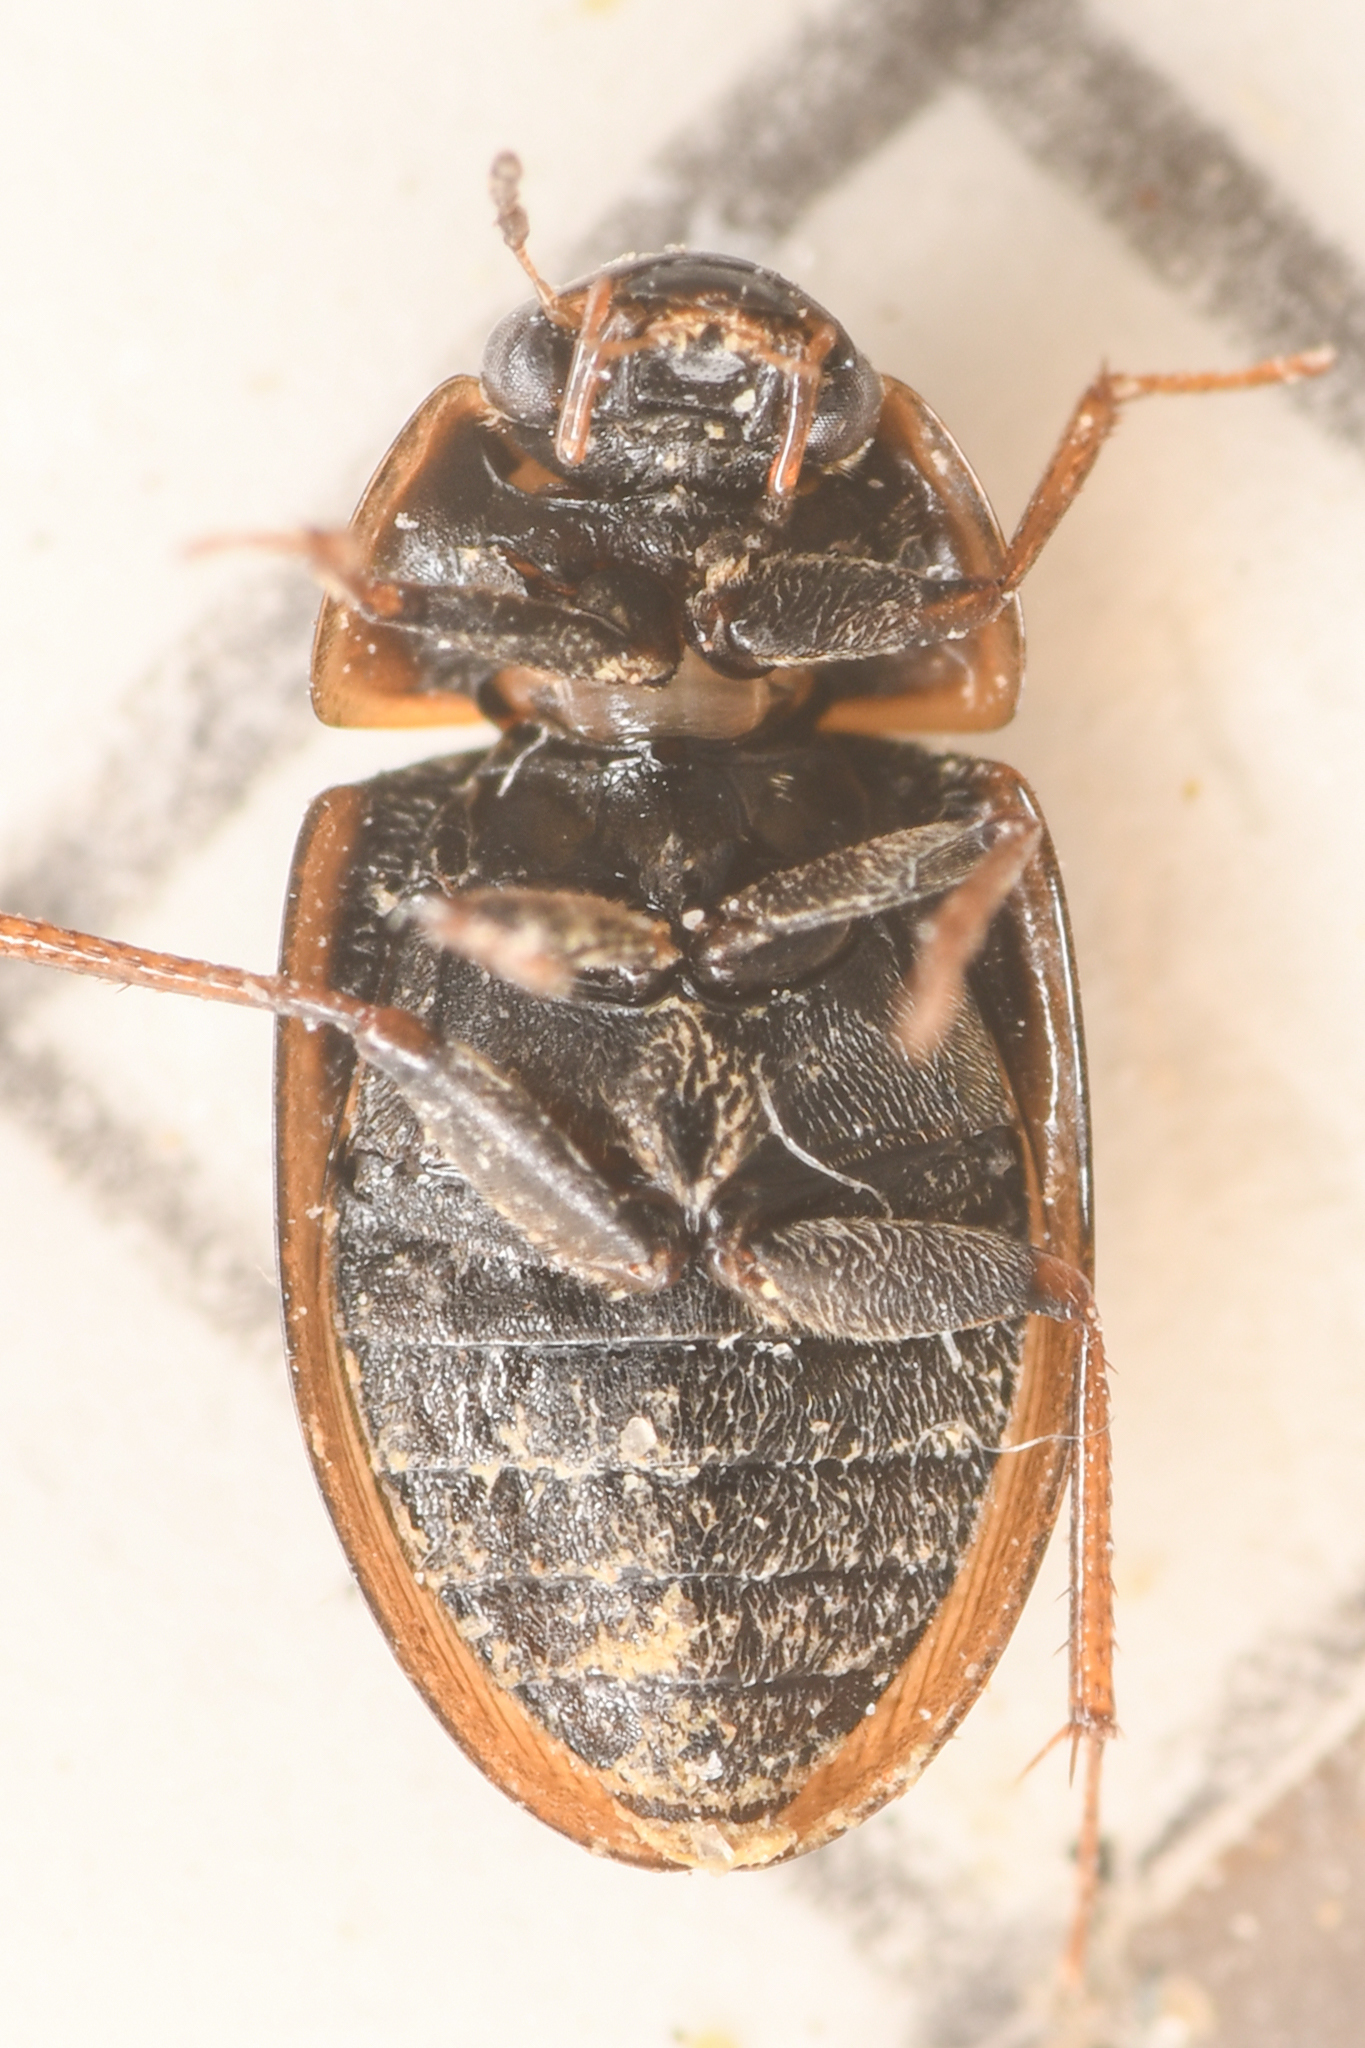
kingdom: Animalia
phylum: Arthropoda
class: Insecta
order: Coleoptera
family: Hydrophilidae
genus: Enochrus
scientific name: Enochrus hamiltoni
